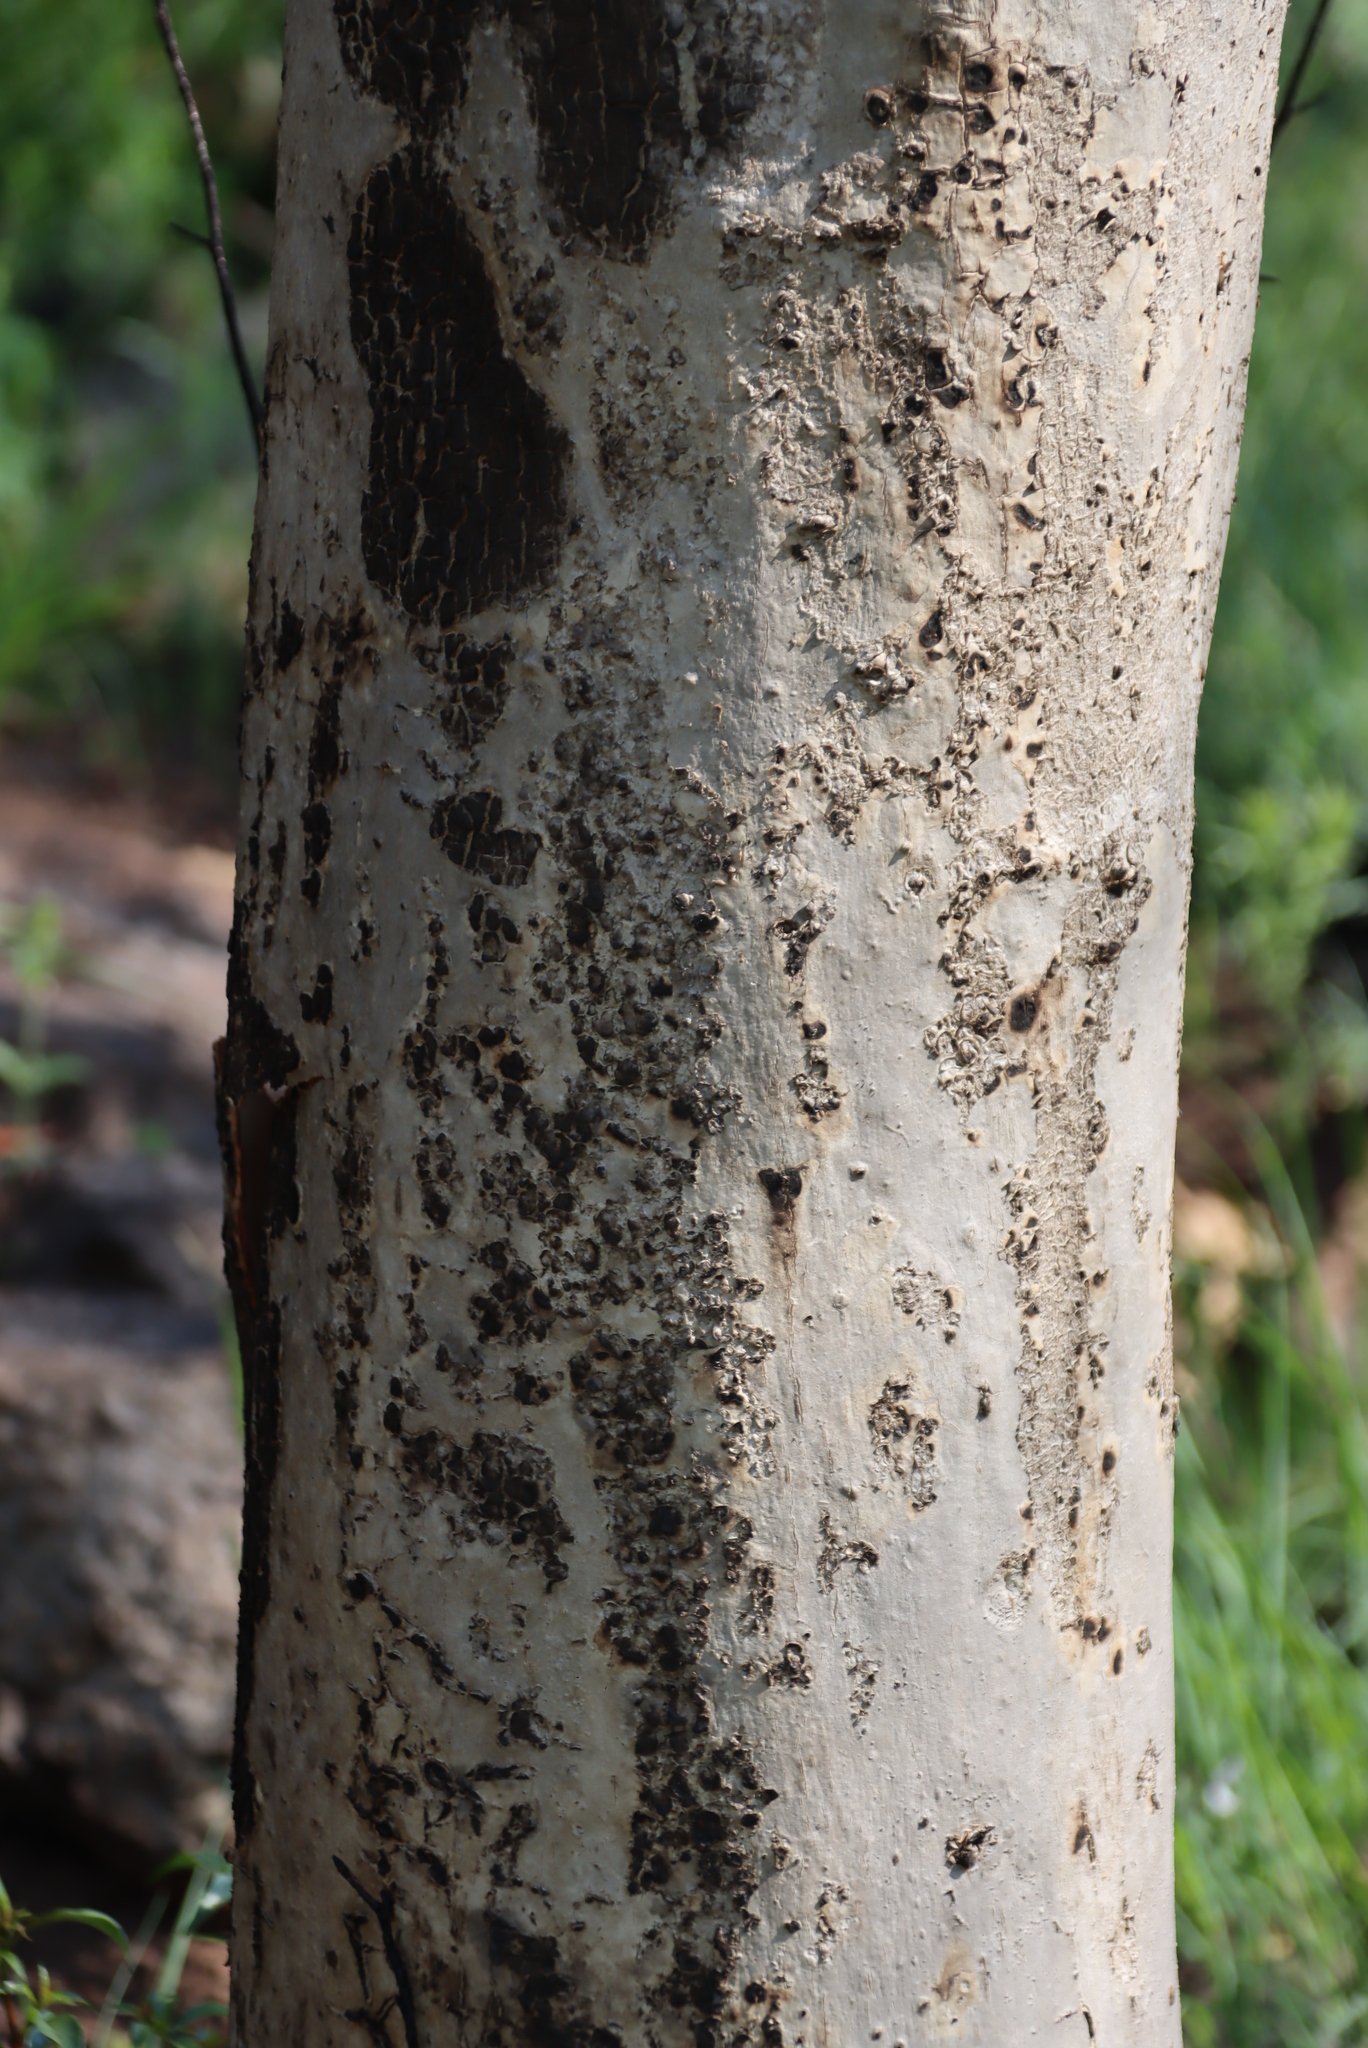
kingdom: Plantae
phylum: Tracheophyta
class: Magnoliopsida
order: Myrtales
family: Myrtaceae
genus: Heteropyxis
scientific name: Heteropyxis natalensis
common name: Lavender tree
